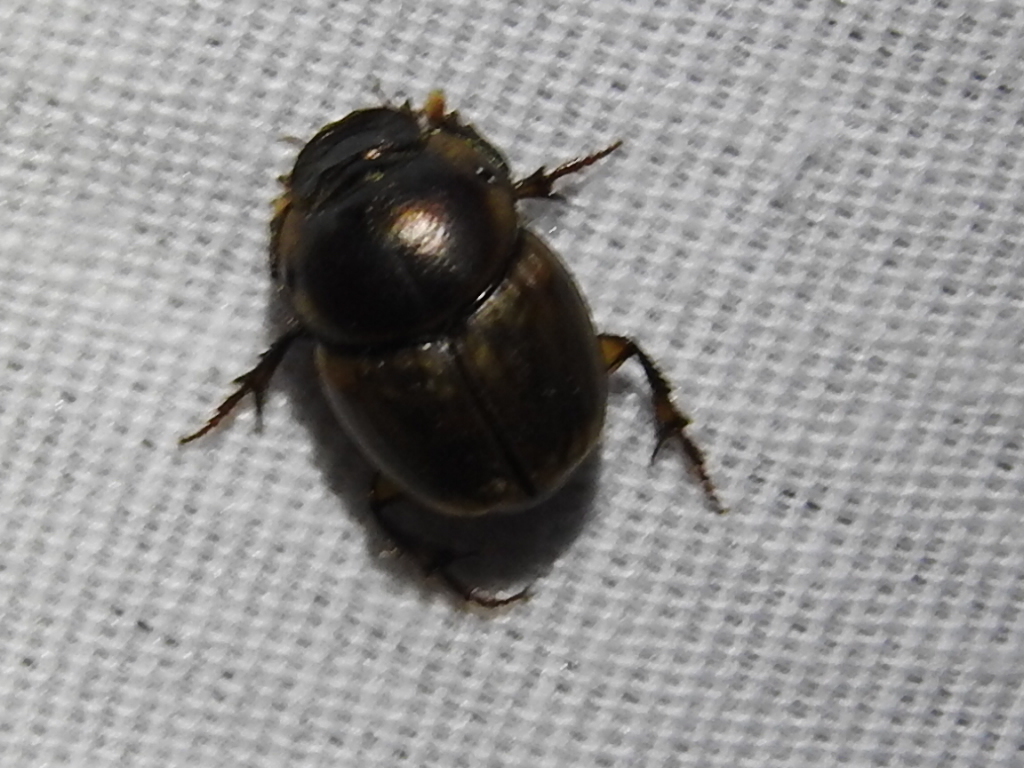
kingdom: Animalia
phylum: Arthropoda
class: Insecta
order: Coleoptera
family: Scarabaeidae
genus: Digitonthophagus
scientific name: Digitonthophagus gazella
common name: Brown dung beetle
